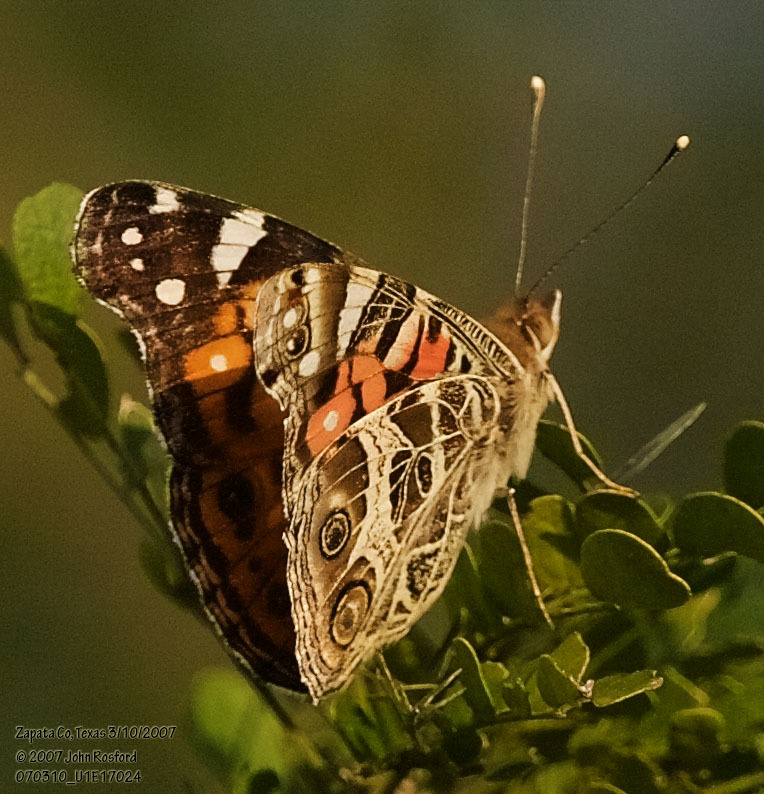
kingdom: Animalia
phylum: Arthropoda
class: Insecta
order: Lepidoptera
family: Nymphalidae
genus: Vanessa
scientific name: Vanessa virginiensis
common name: American lady
